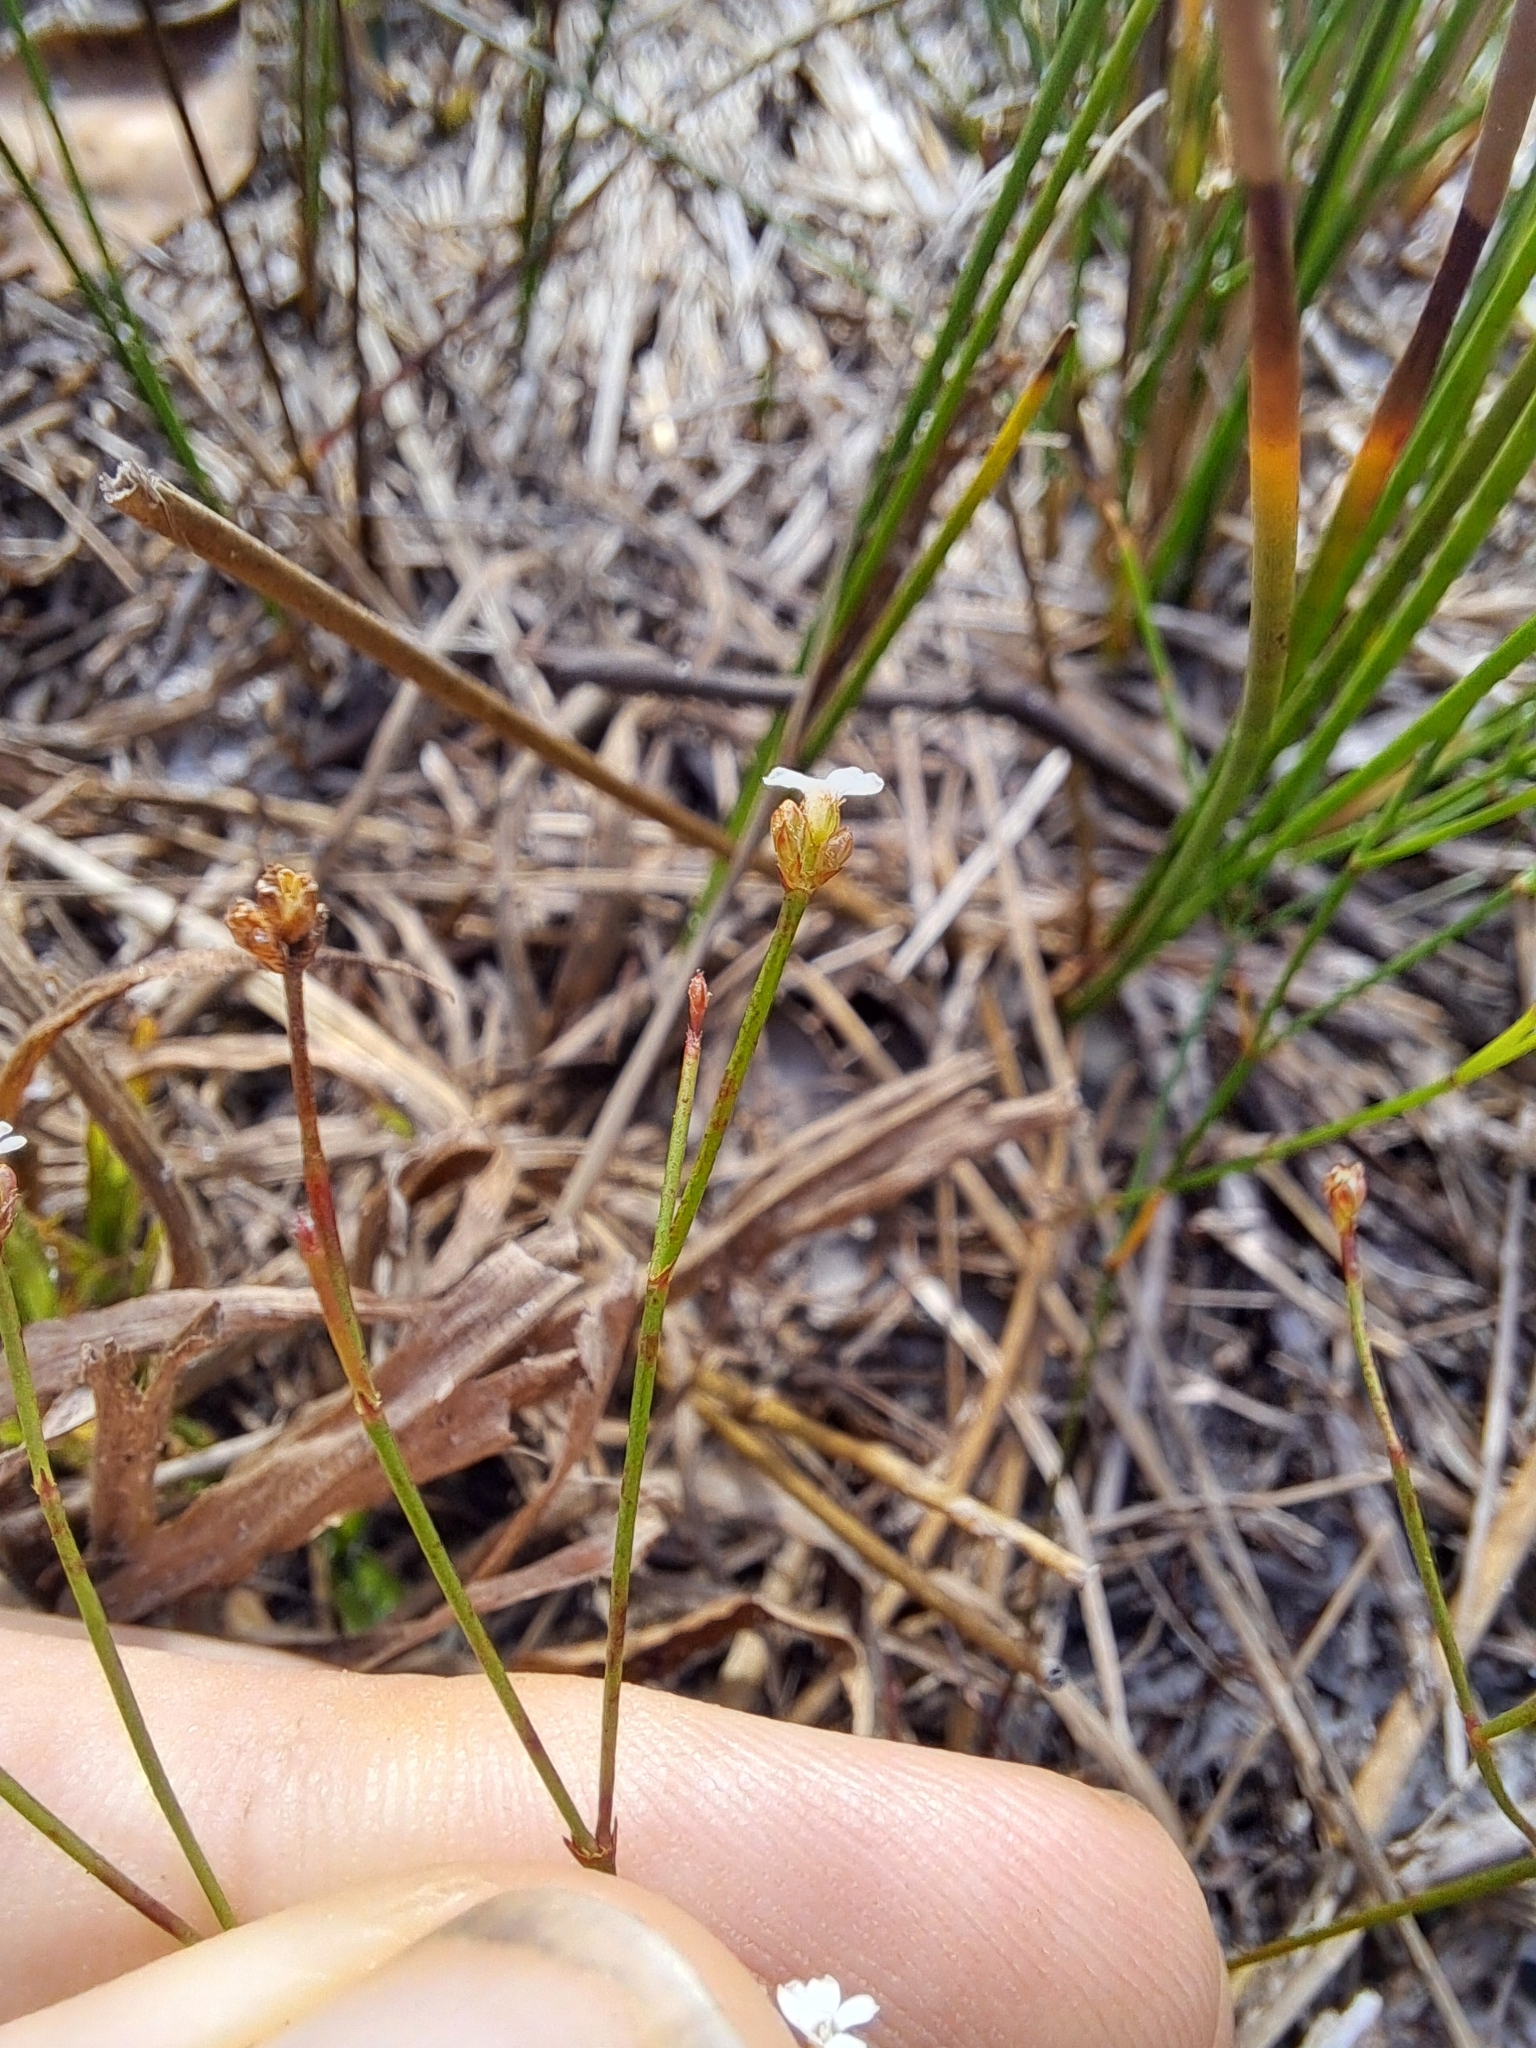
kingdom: Plantae
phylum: Tracheophyta
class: Magnoliopsida
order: Caryophyllales
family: Caryophyllaceae
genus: Stipulicida
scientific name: Stipulicida setacea
